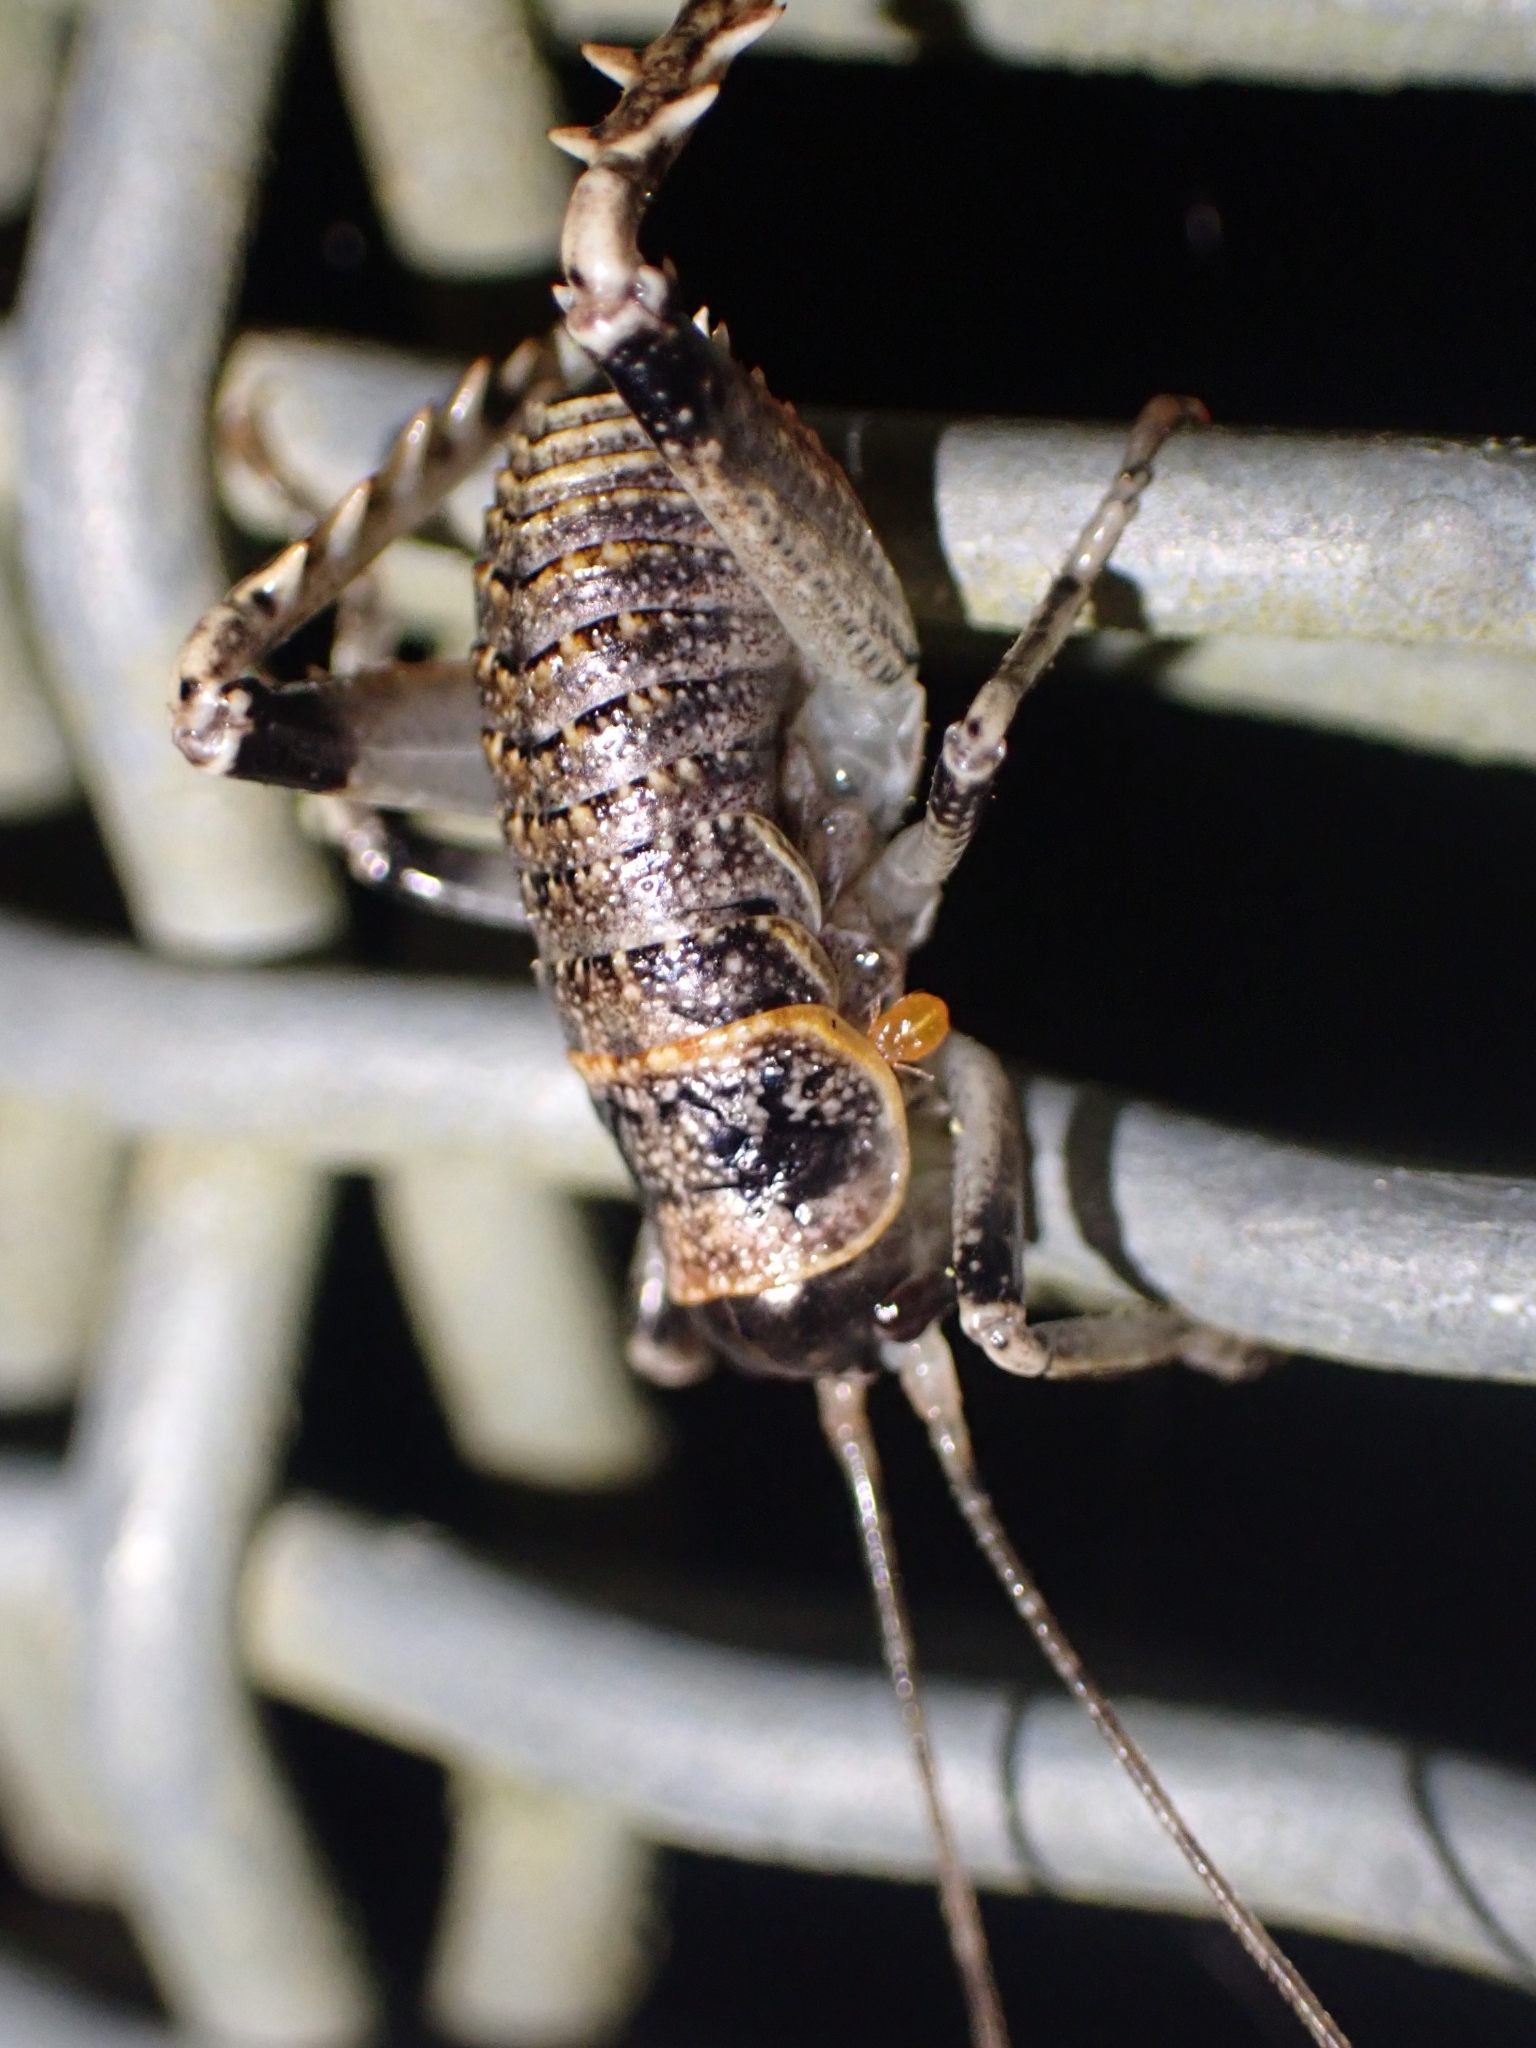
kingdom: Animalia
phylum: Arthropoda
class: Insecta
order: Orthoptera
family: Anostostomatidae
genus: Deinacrida
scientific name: Deinacrida rugosa
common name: Stephens island weta
